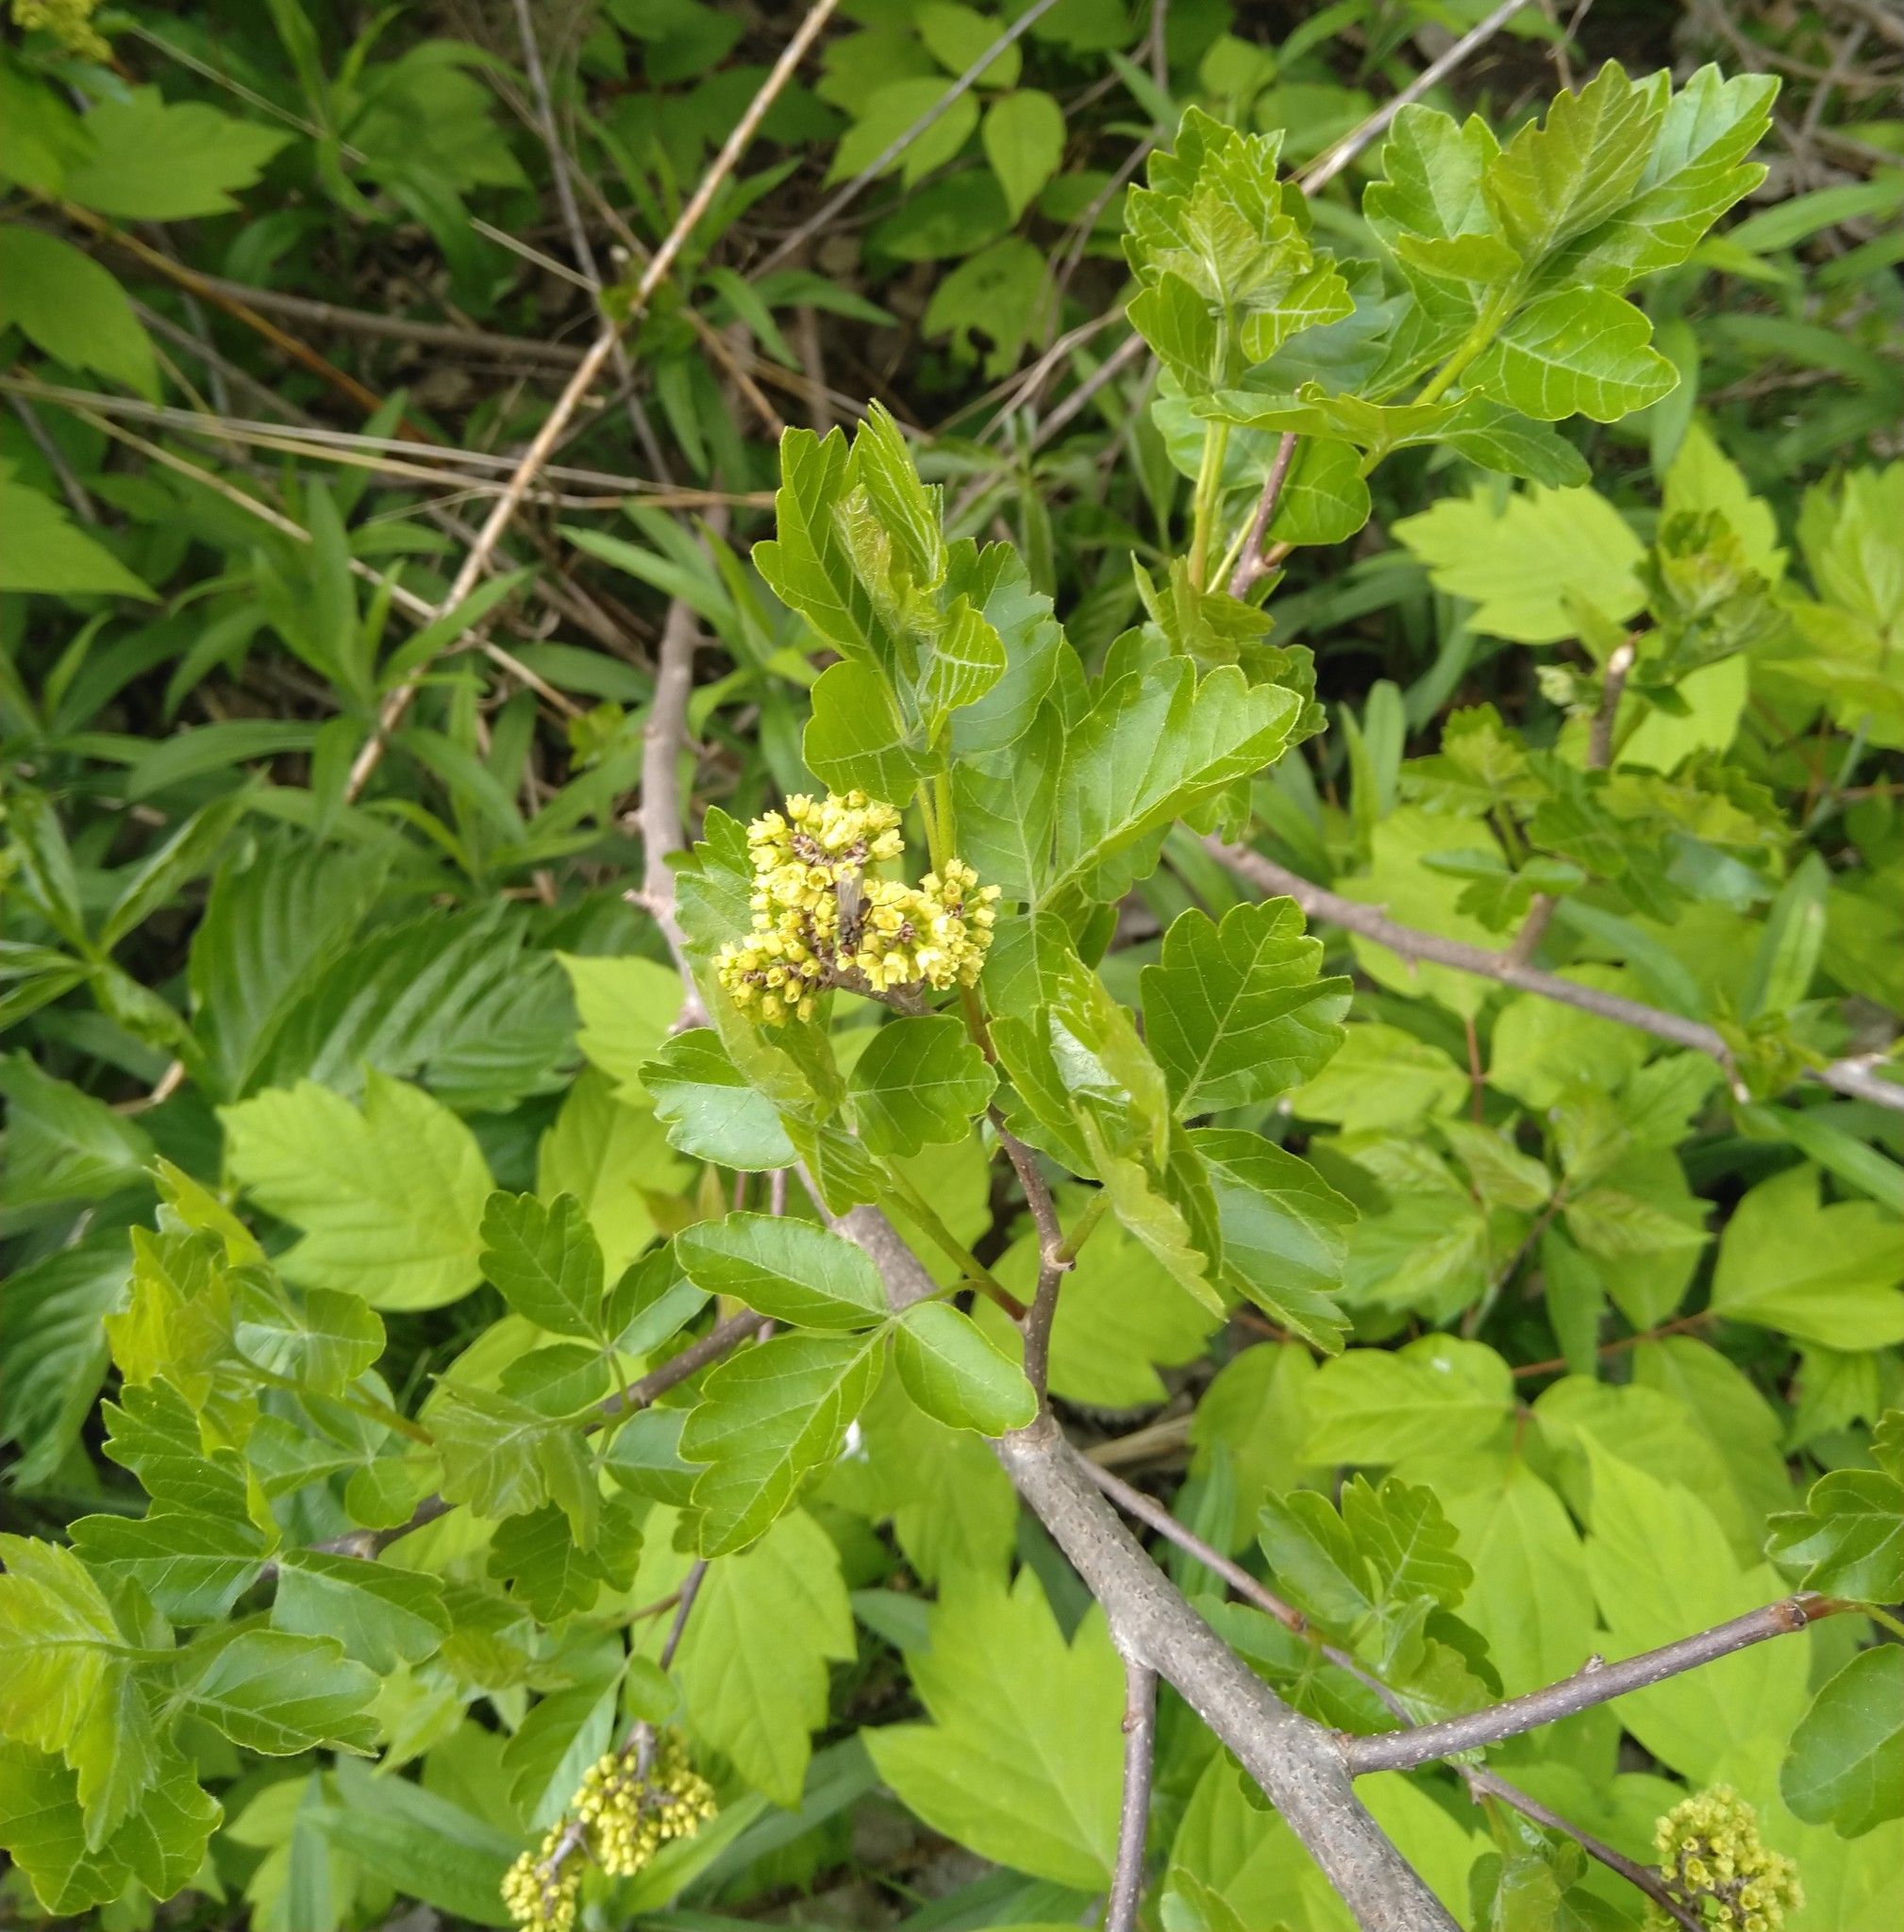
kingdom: Plantae
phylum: Tracheophyta
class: Magnoliopsida
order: Sapindales
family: Anacardiaceae
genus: Rhus
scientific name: Rhus aromatica
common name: Aromatic sumac
